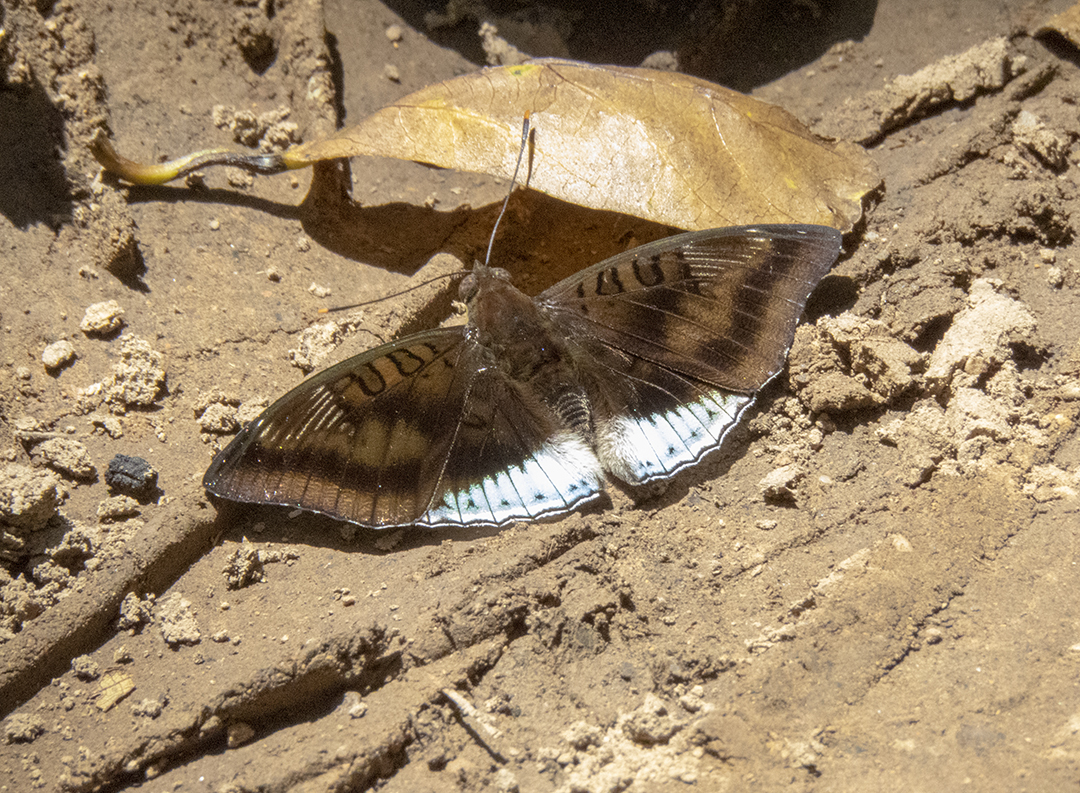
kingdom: Animalia
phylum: Arthropoda
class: Insecta
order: Lepidoptera
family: Nymphalidae
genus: Euthalia
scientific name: Euthalia phemius
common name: White-edged blue baron
